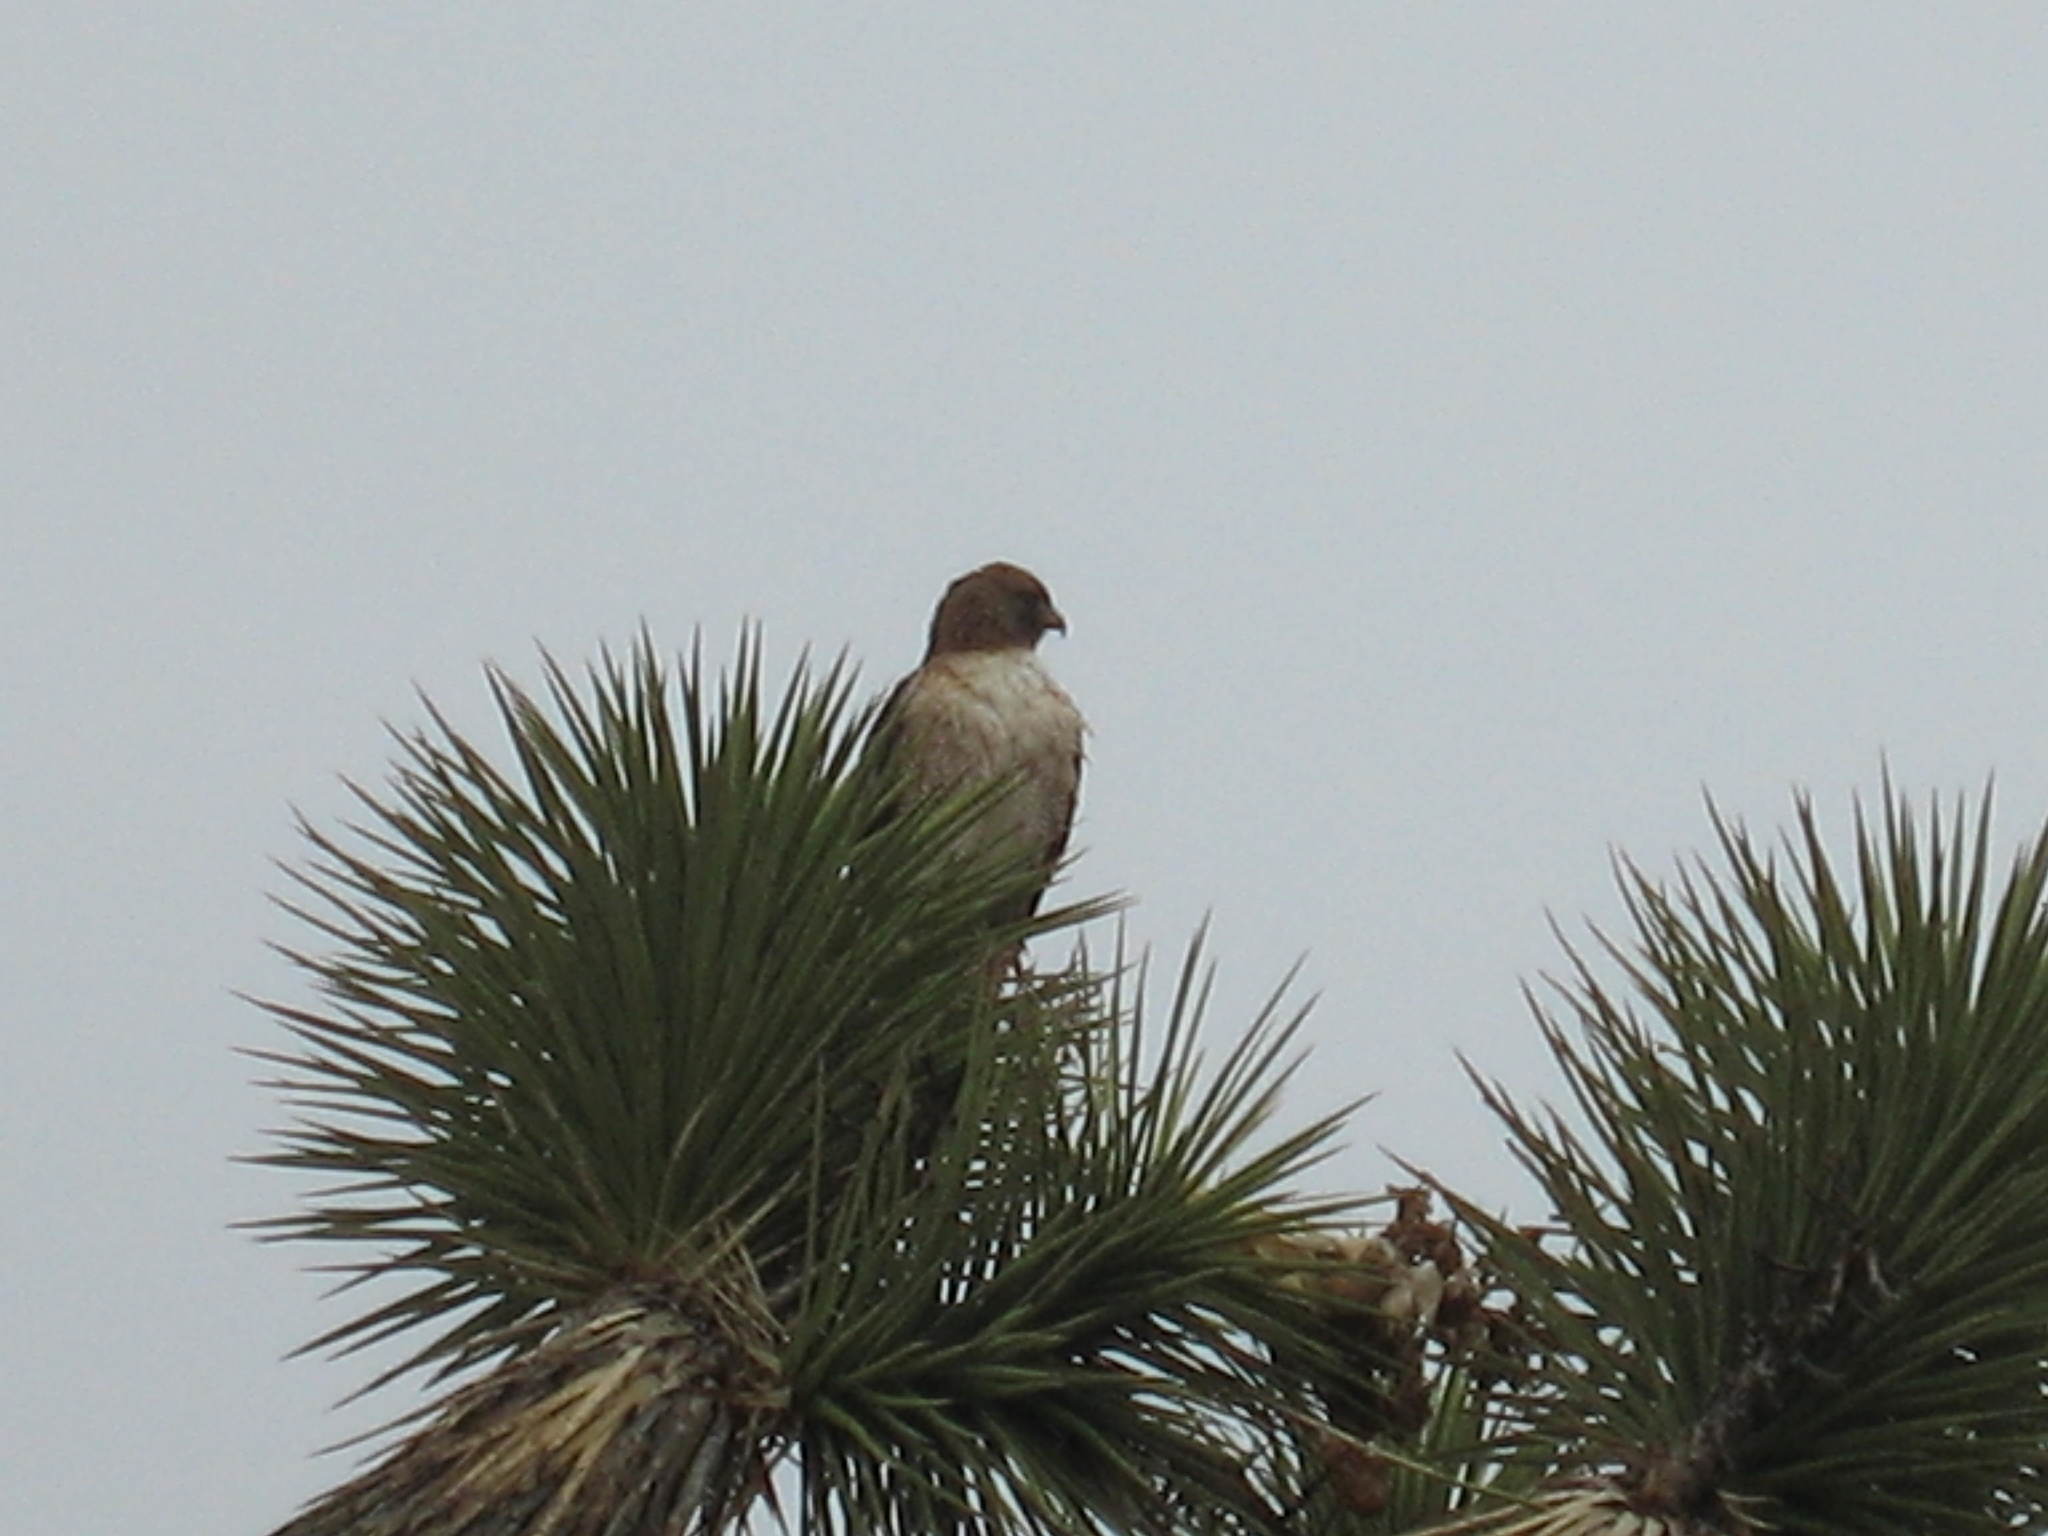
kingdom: Animalia
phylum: Chordata
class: Aves
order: Accipitriformes
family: Accipitridae
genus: Buteo
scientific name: Buteo lineatus
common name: Red-shouldered hawk
